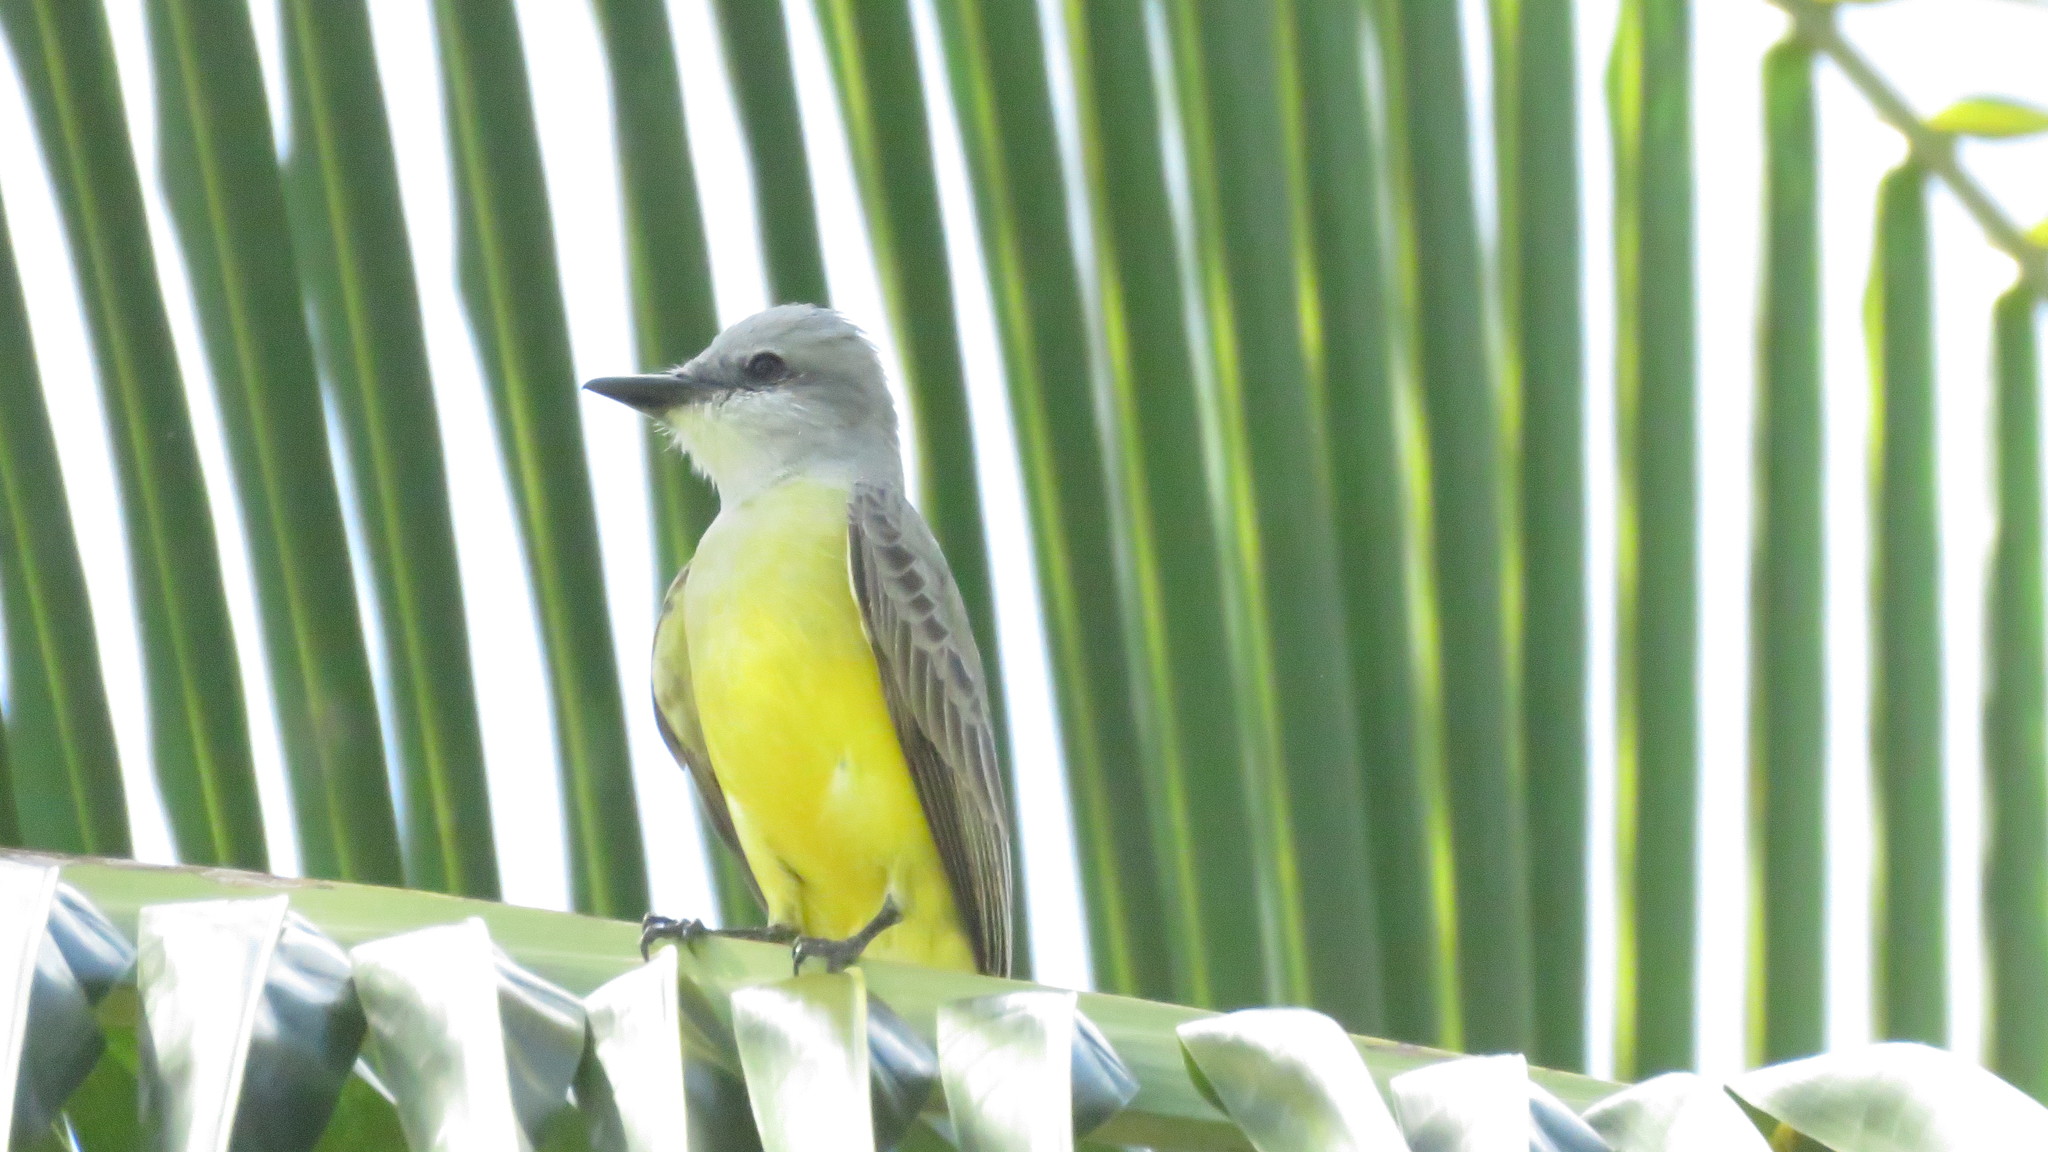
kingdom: Animalia
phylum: Chordata
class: Aves
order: Passeriformes
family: Tyrannidae
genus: Tyrannus
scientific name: Tyrannus couchii
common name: Couch's kingbird
